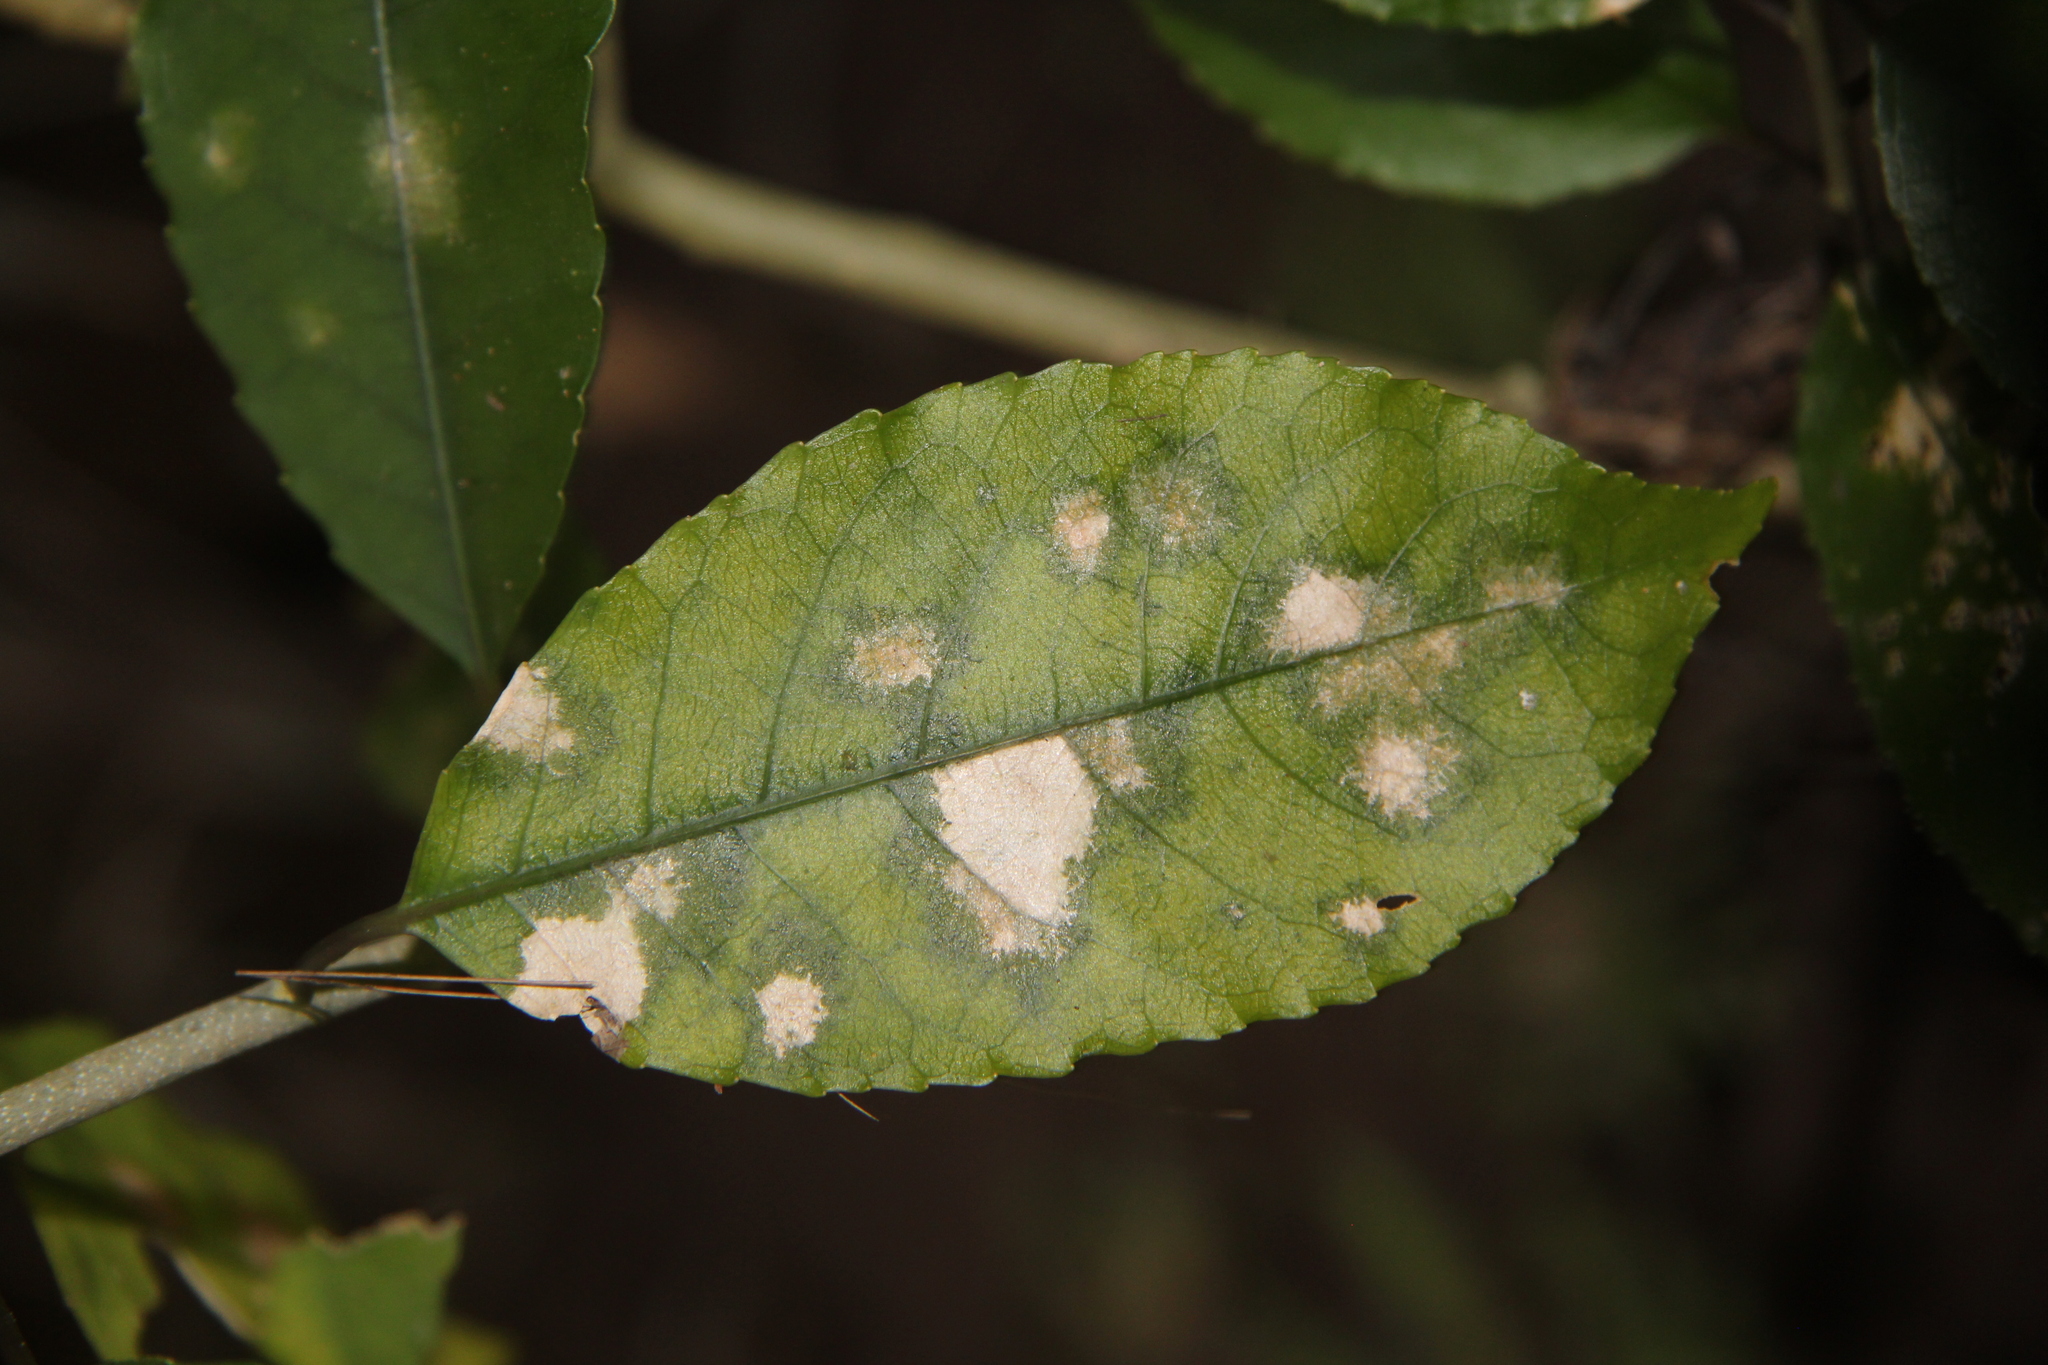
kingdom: Plantae
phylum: Tracheophyta
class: Magnoliopsida
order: Malpighiales
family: Violaceae
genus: Melicytus
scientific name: Melicytus ramiflorus
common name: Mahoe
